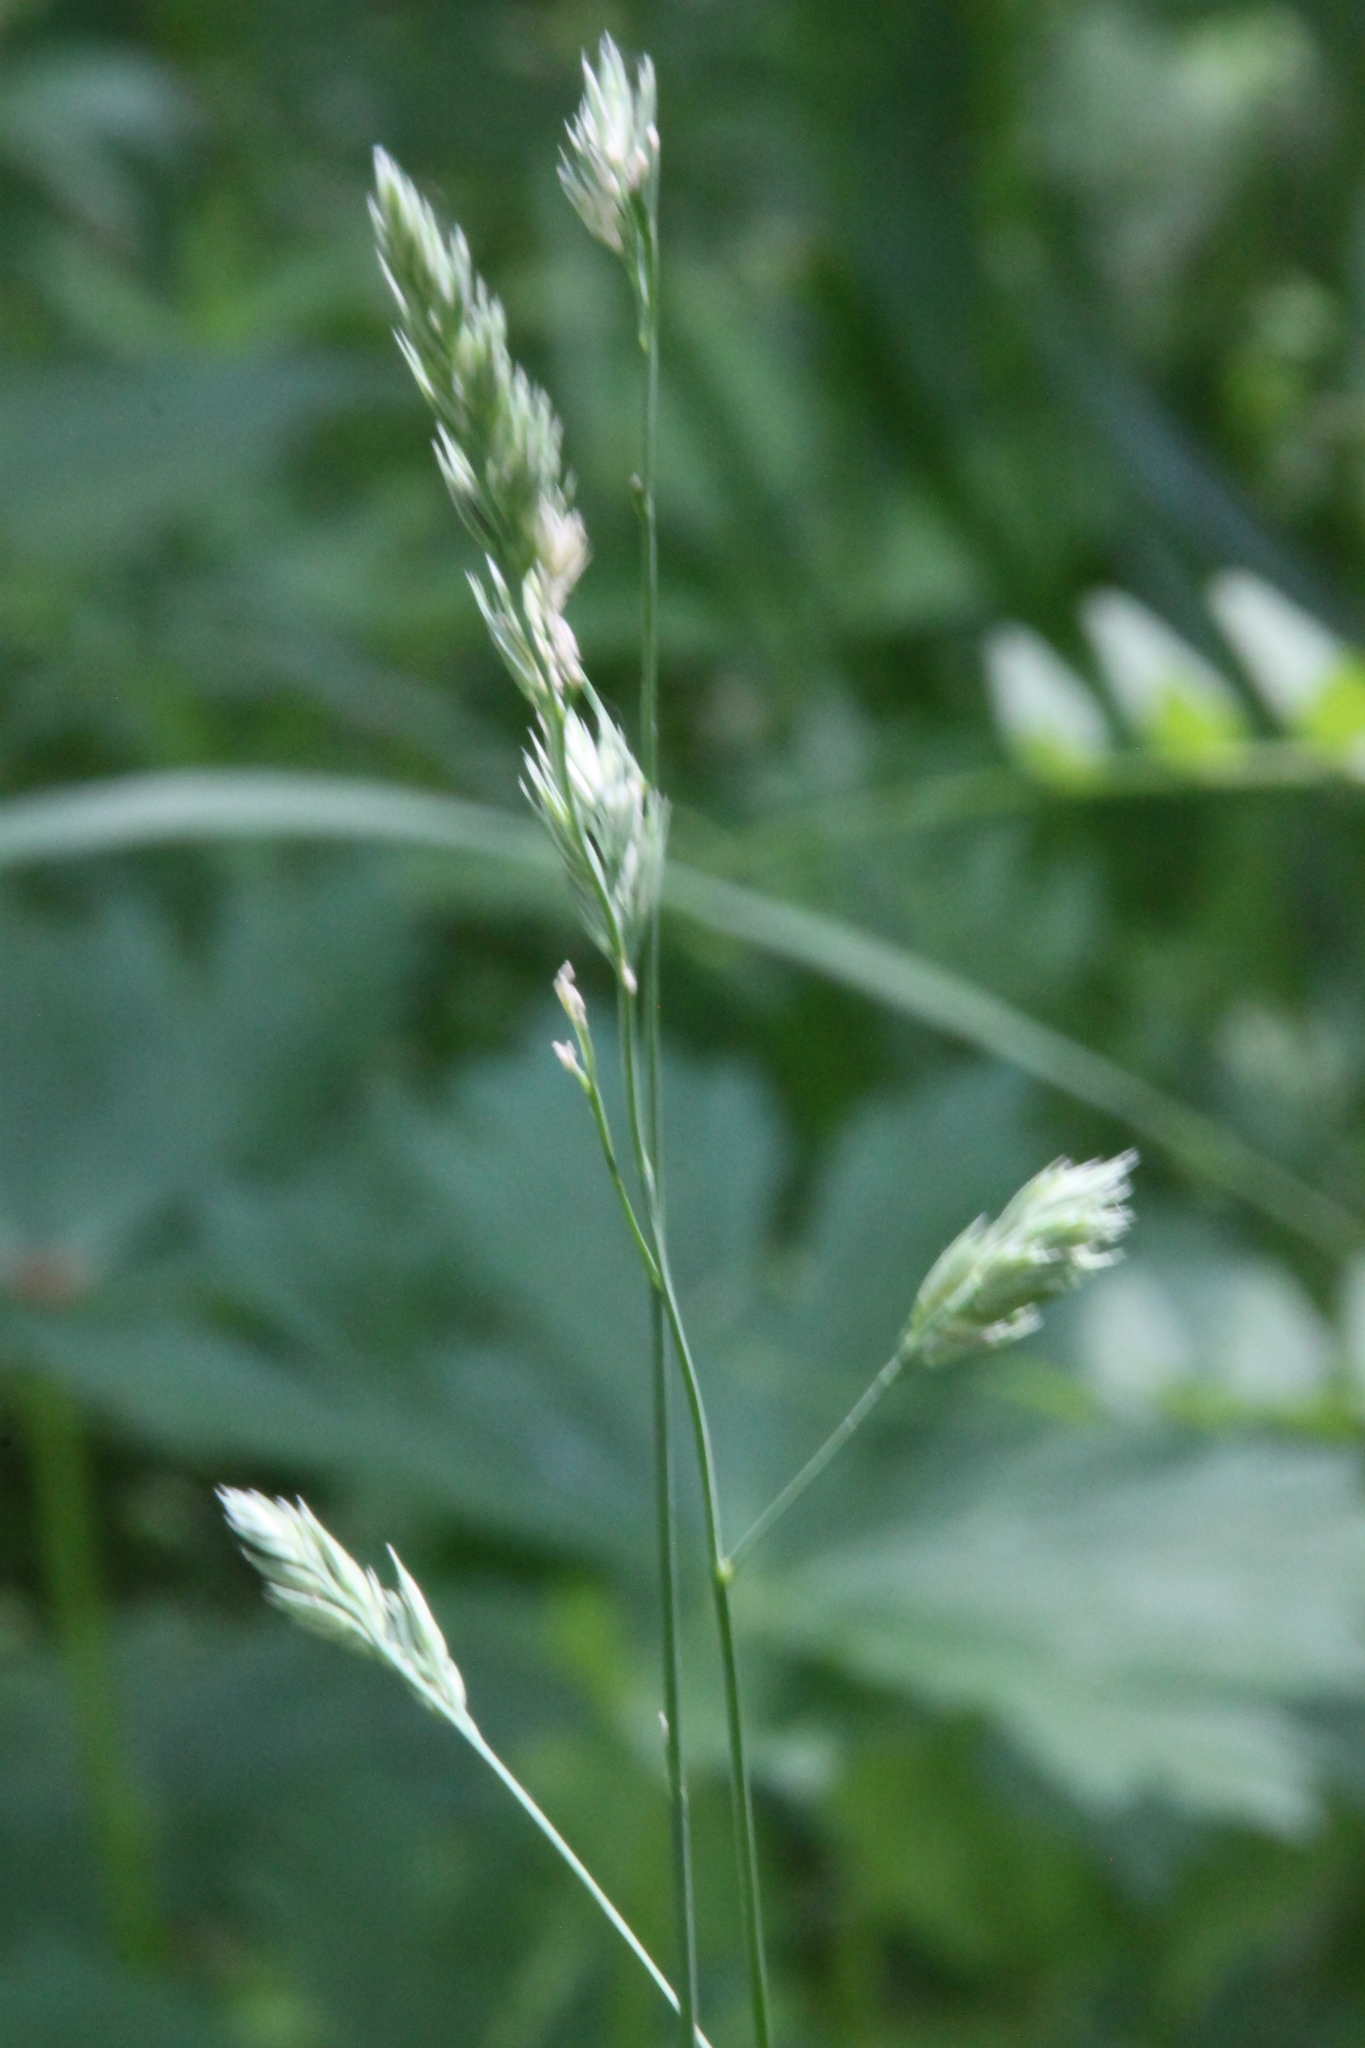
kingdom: Plantae
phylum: Tracheophyta
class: Liliopsida
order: Poales
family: Poaceae
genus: Dactylis
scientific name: Dactylis glomerata
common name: Orchardgrass
